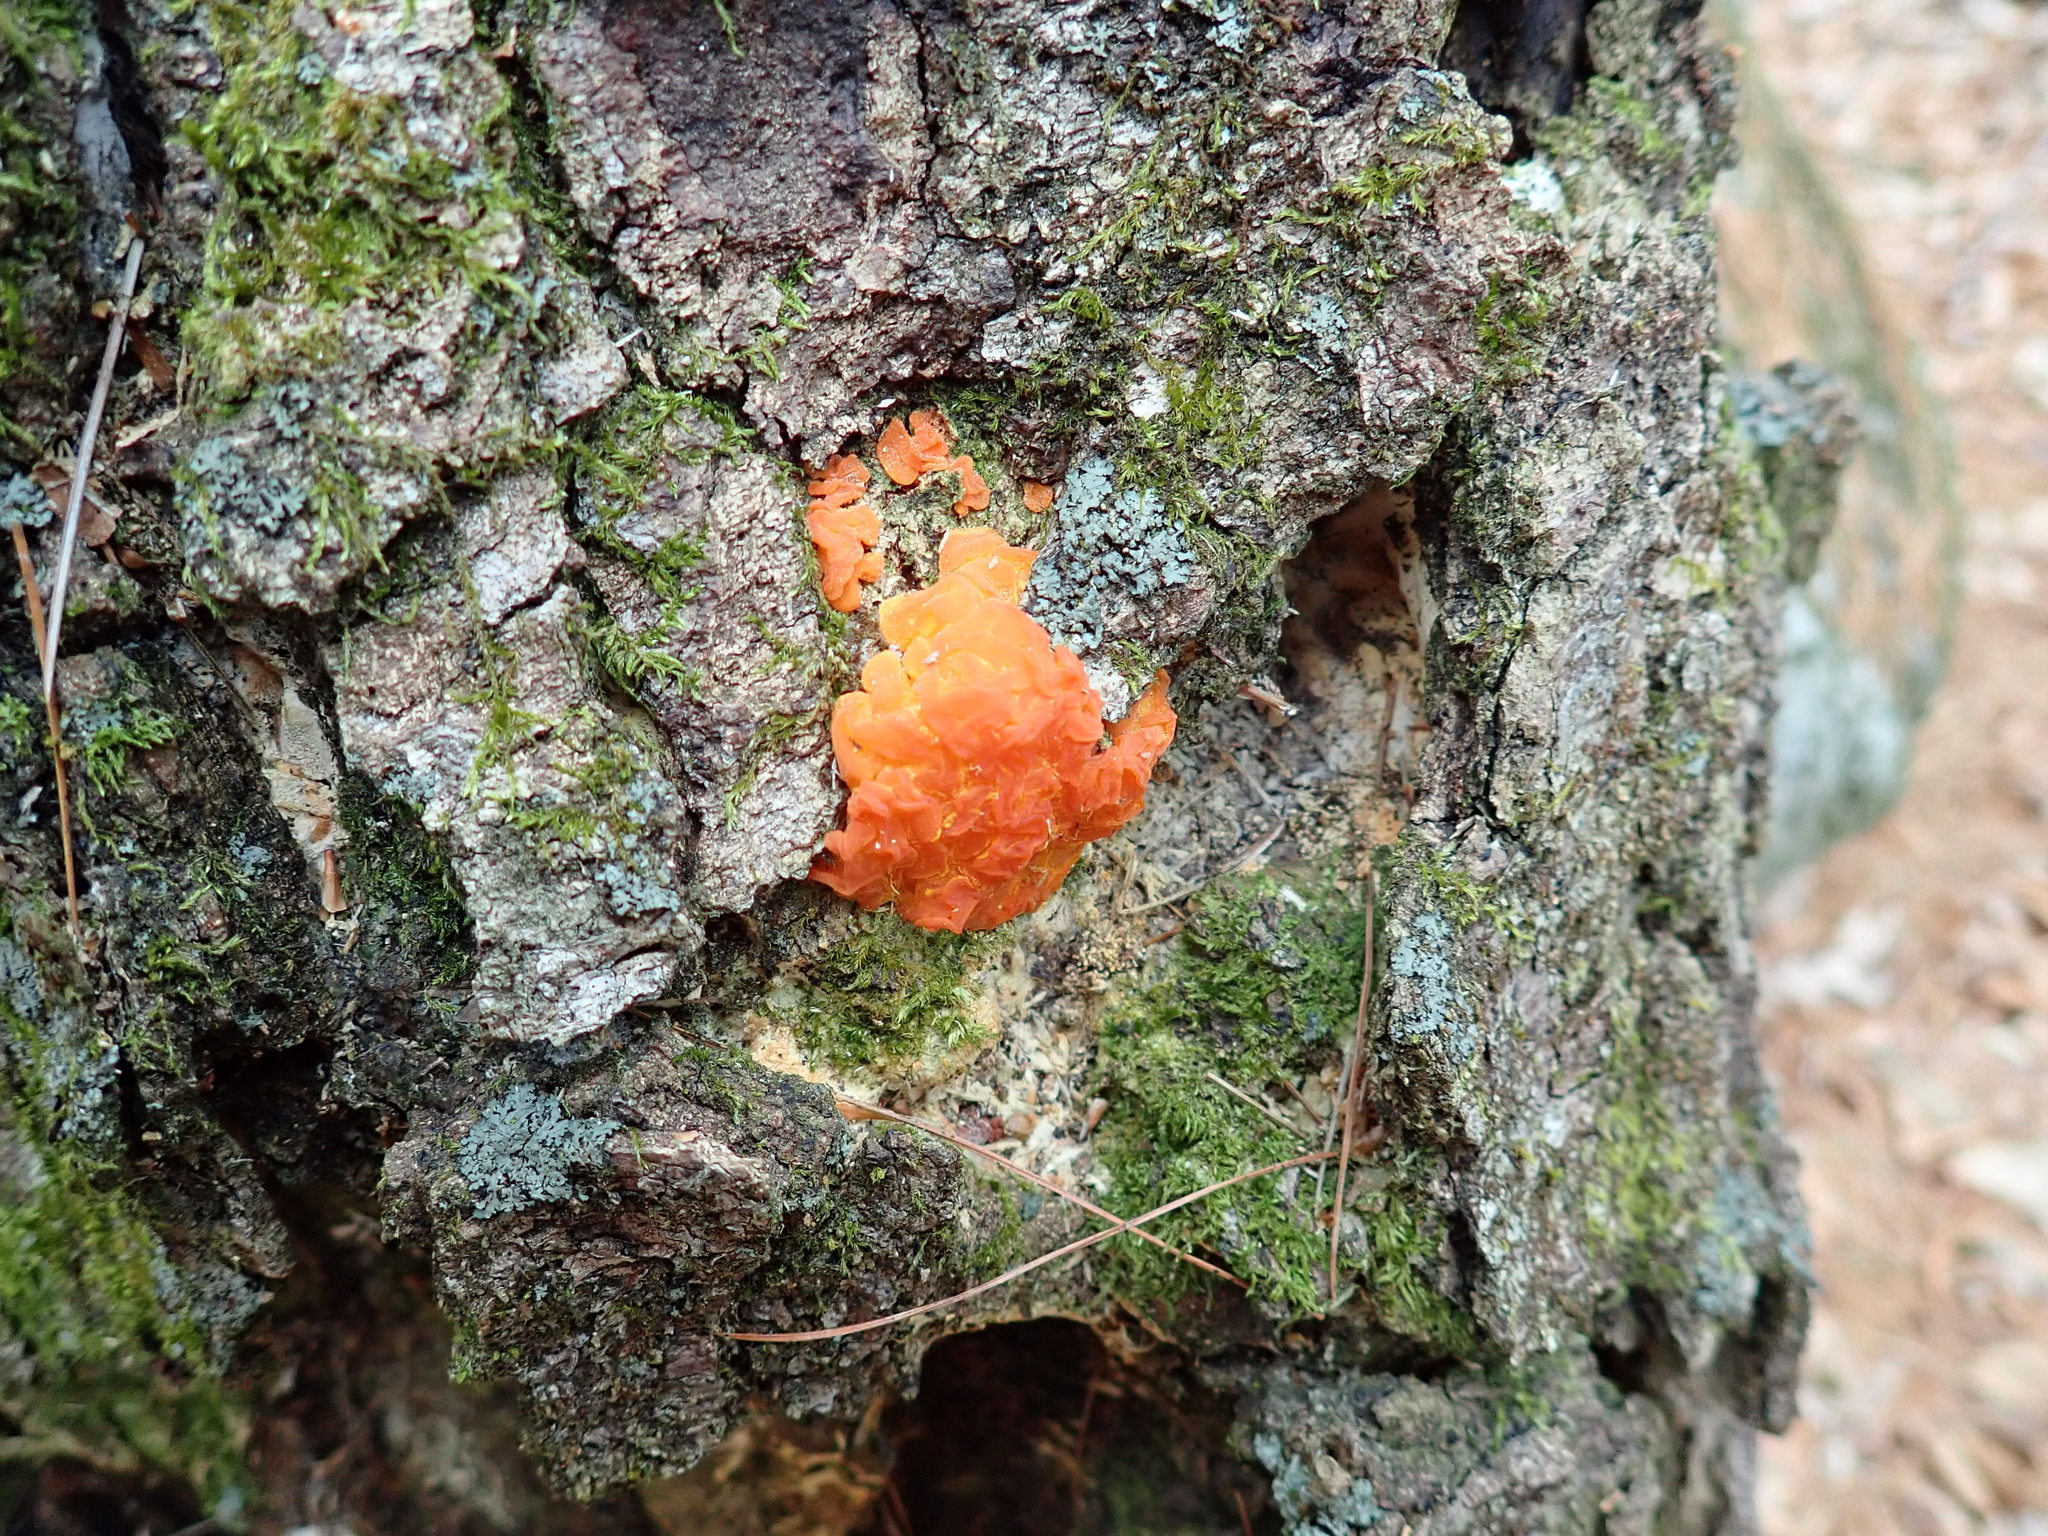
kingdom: Fungi
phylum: Basidiomycota
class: Tremellomycetes
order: Tremellales
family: Tremellaceae
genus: Tremella
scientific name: Tremella mesenterica
